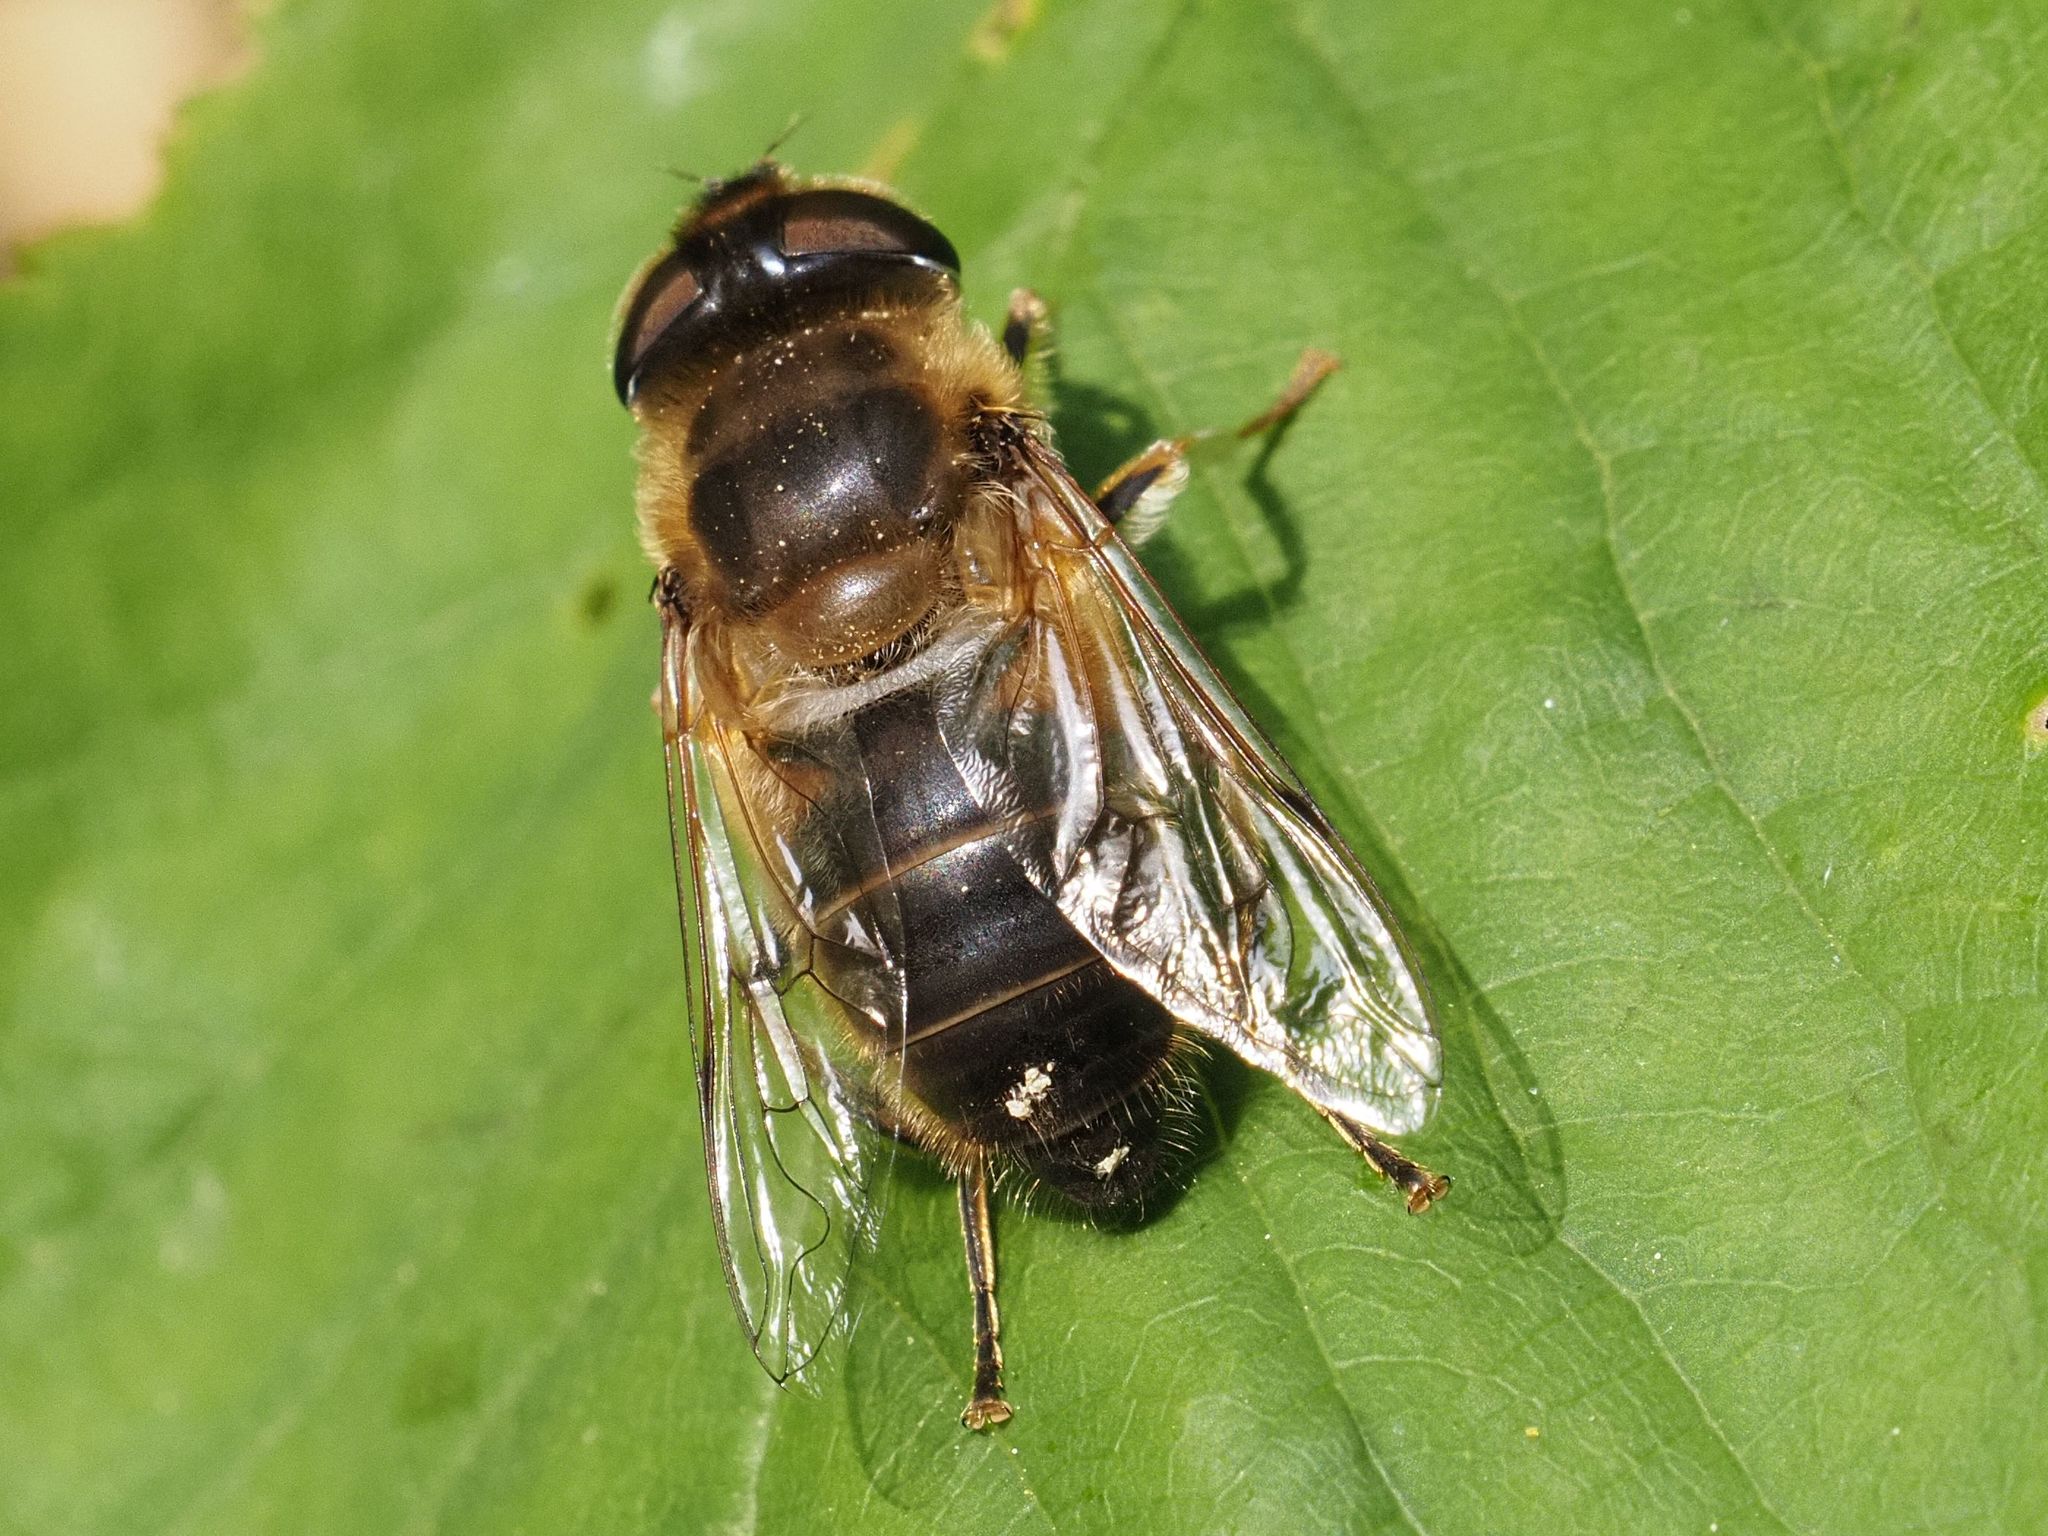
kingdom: Animalia
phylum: Arthropoda
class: Insecta
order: Diptera
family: Syrphidae
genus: Eristalis
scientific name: Eristalis pertinax
